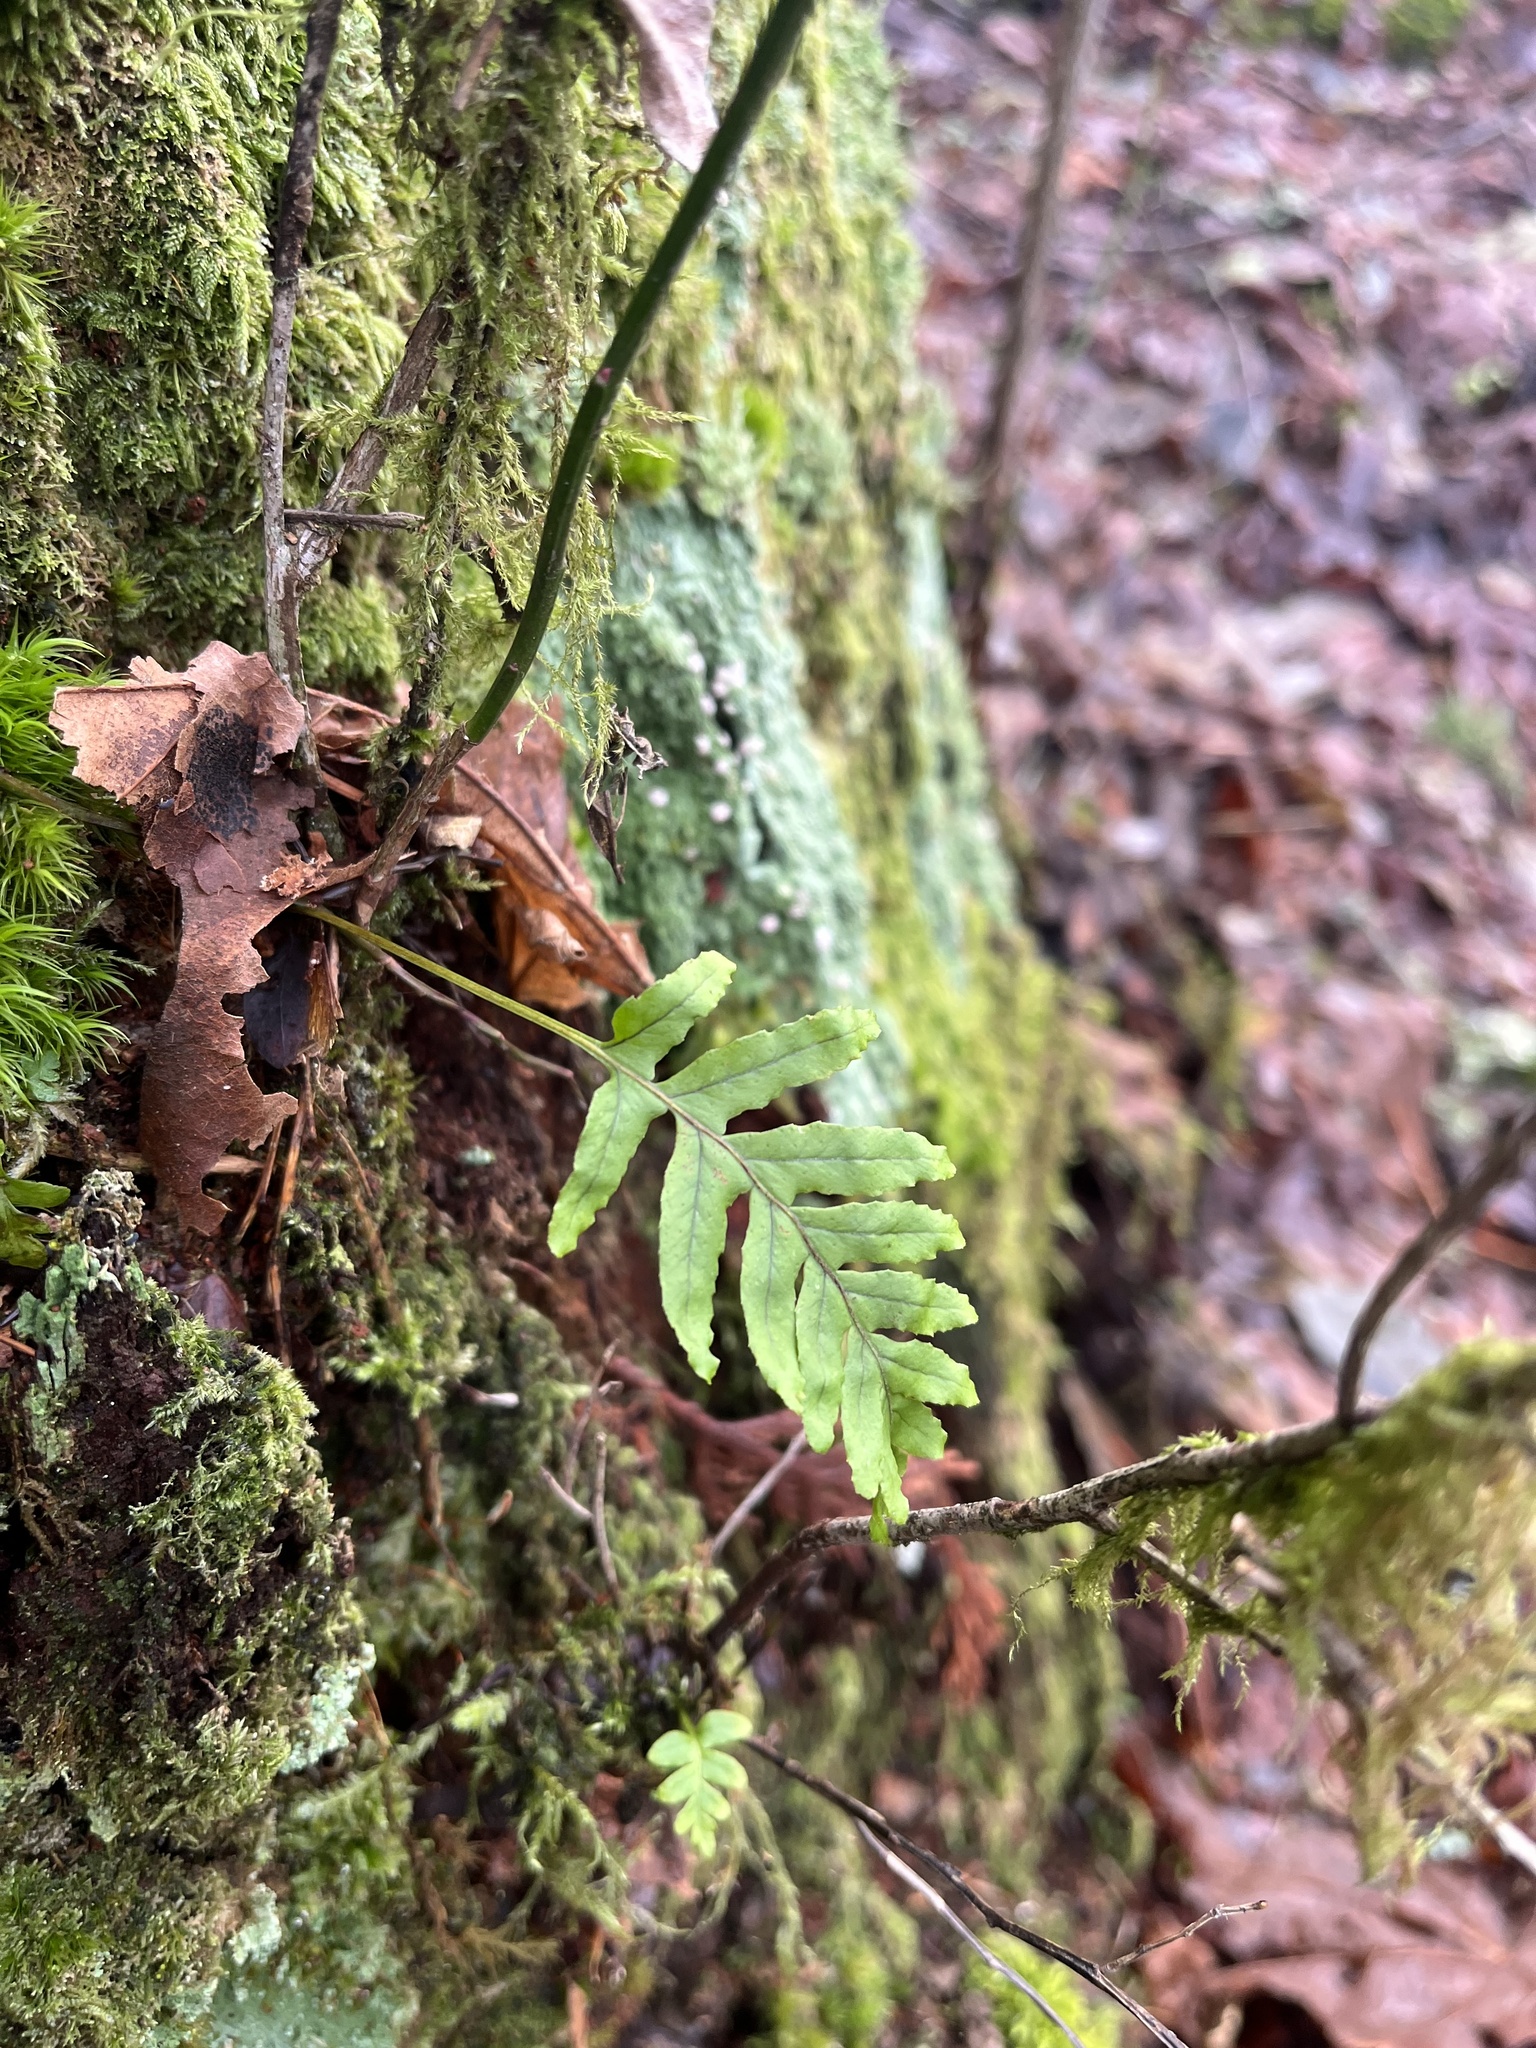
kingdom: Plantae
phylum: Tracheophyta
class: Polypodiopsida
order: Polypodiales
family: Polypodiaceae
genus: Polypodium
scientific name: Polypodium glycyrrhiza
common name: Licorice fern
